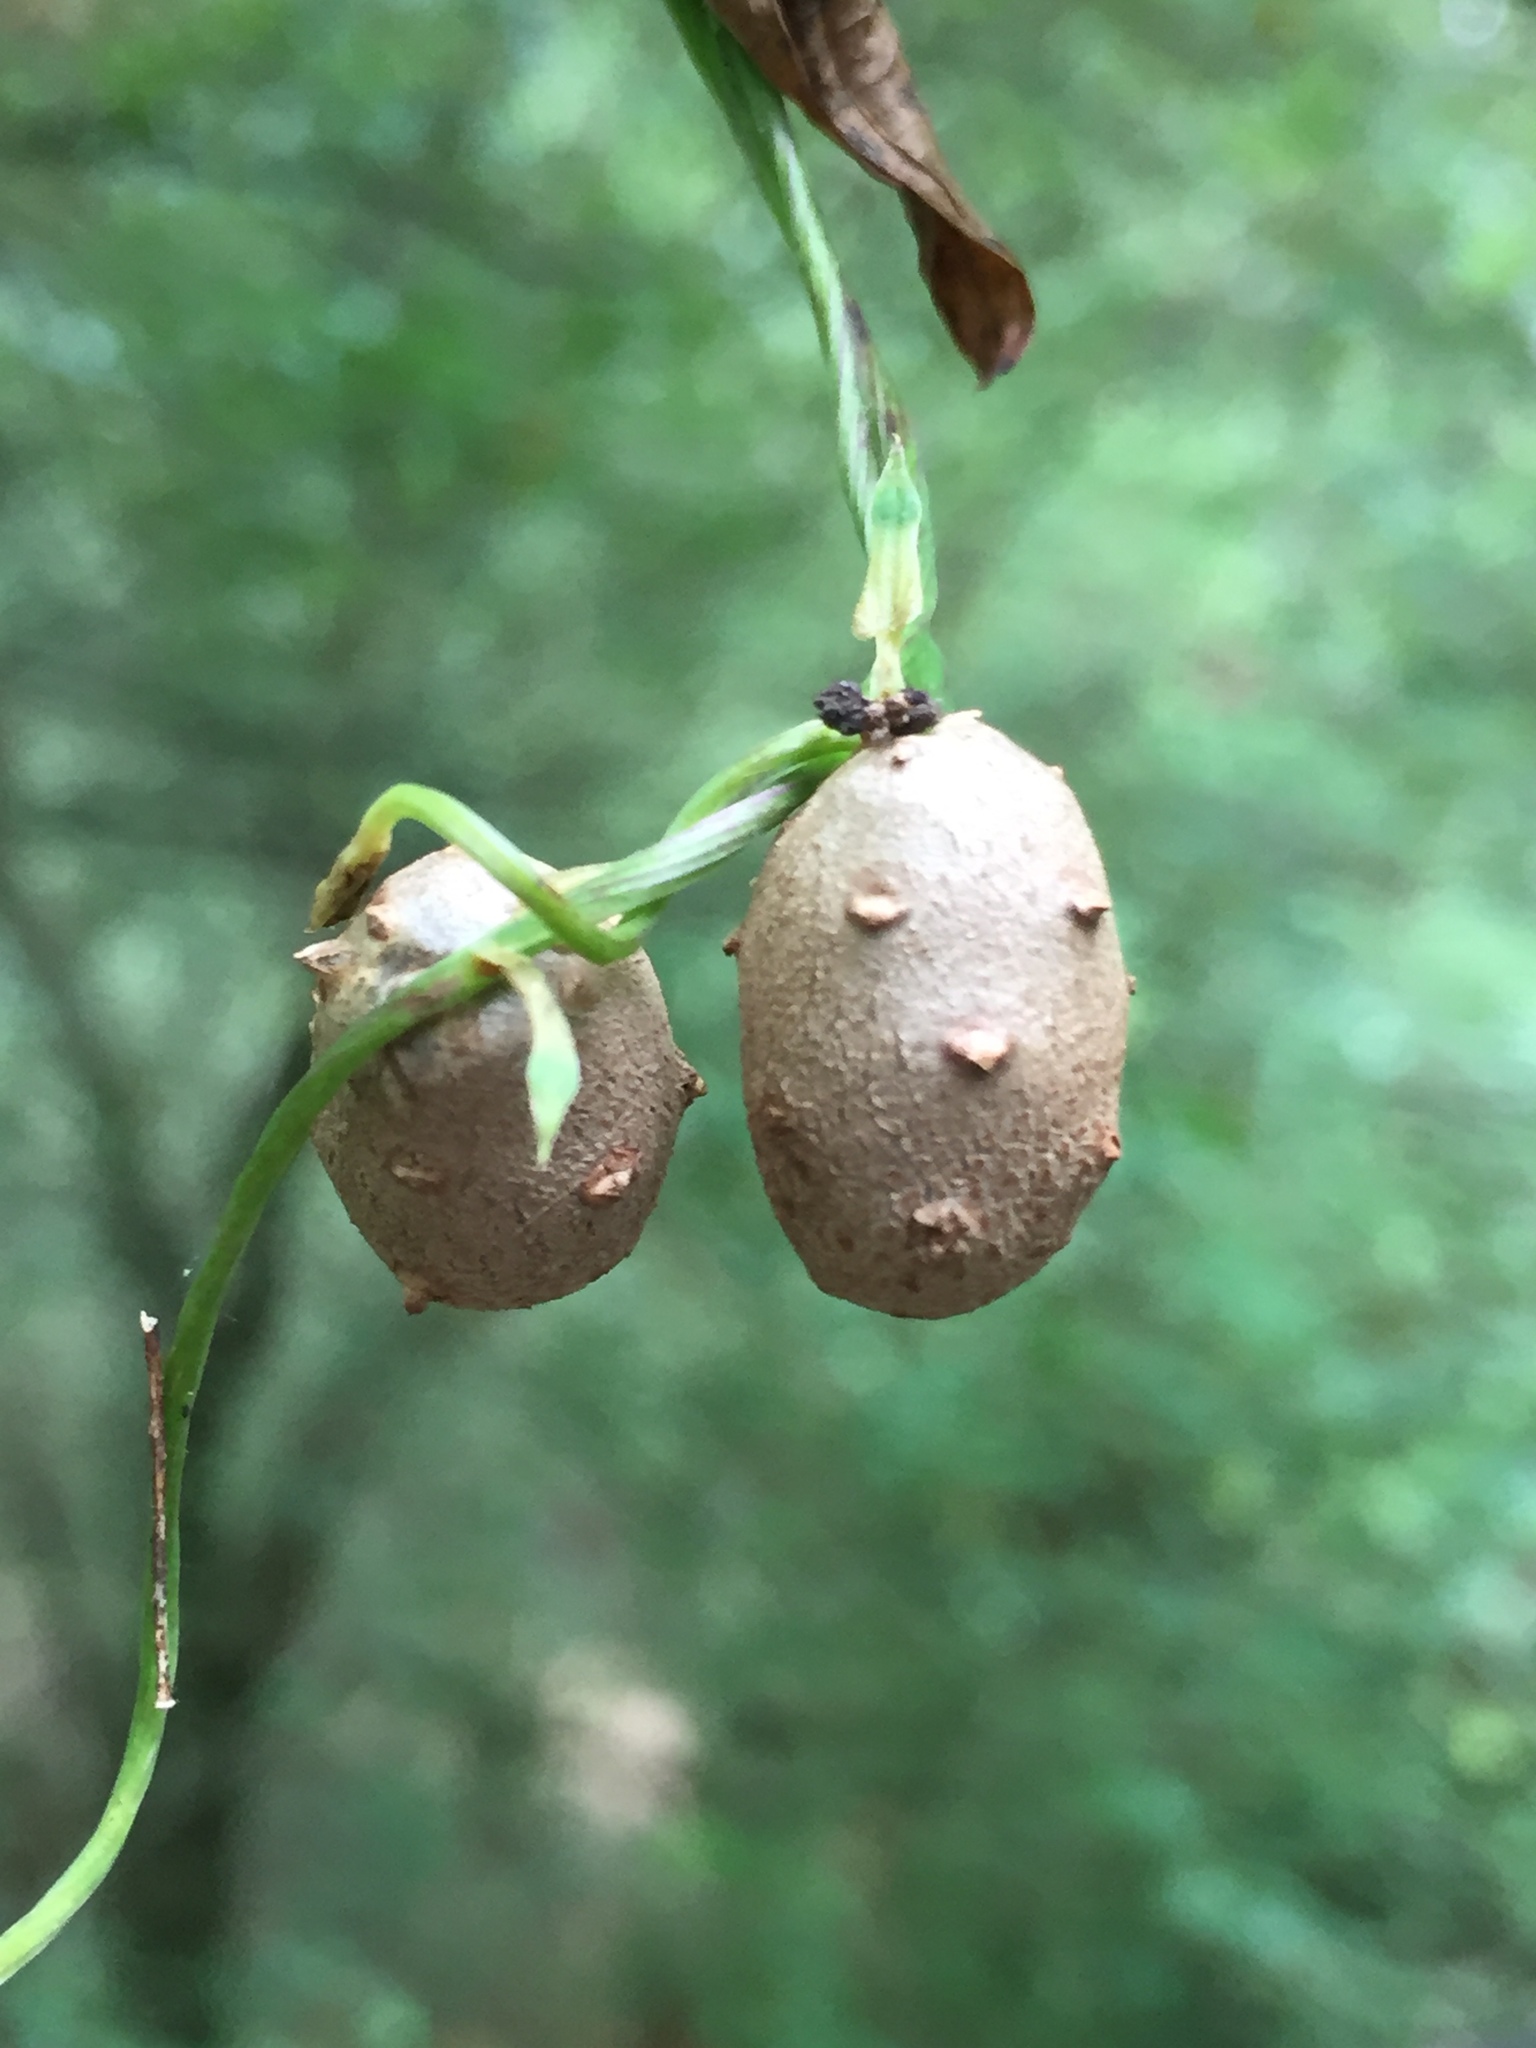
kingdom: Plantae
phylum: Tracheophyta
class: Liliopsida
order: Dioscoreales
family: Dioscoreaceae
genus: Dioscorea
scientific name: Dioscorea polystachya
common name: Chinese yam
